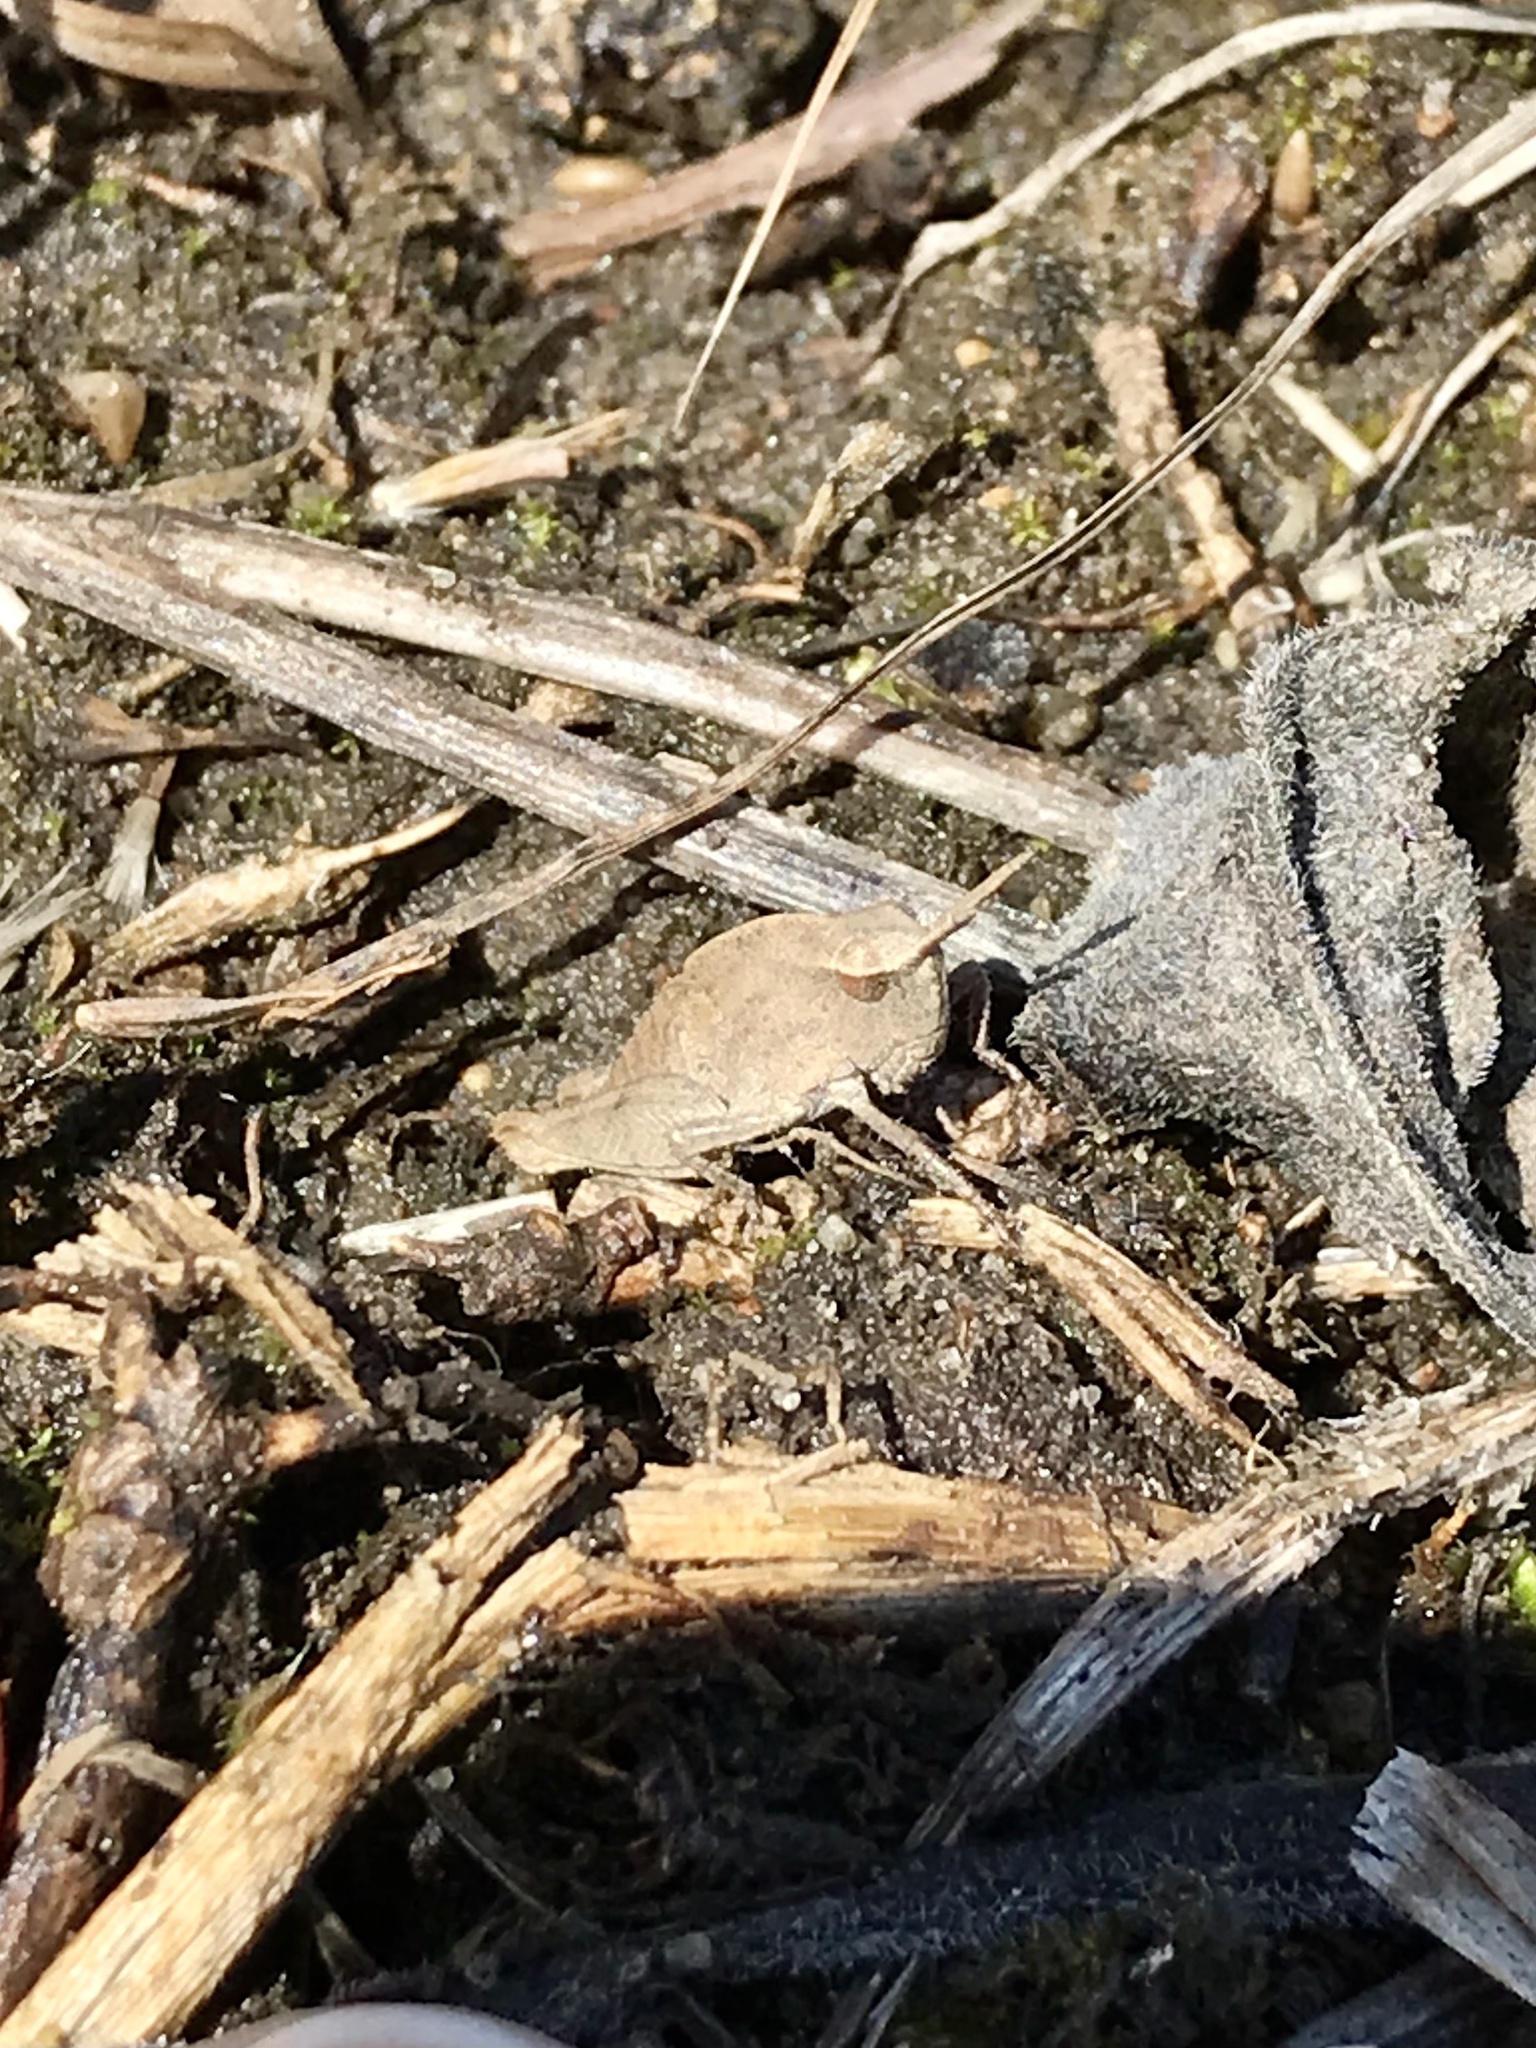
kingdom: Animalia
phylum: Arthropoda
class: Insecta
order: Orthoptera
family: Acrididae
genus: Chortophaga
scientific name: Chortophaga viridifasciata
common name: Green-striped grasshopper
